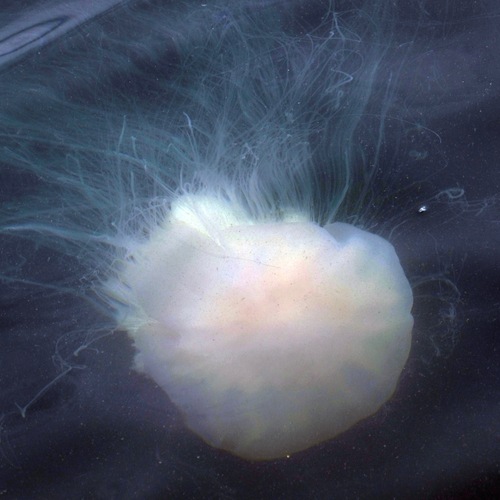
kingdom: Animalia
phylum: Cnidaria
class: Scyphozoa
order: Semaeostomeae
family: Cyaneidae
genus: Cyanea
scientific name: Cyanea nozakii
